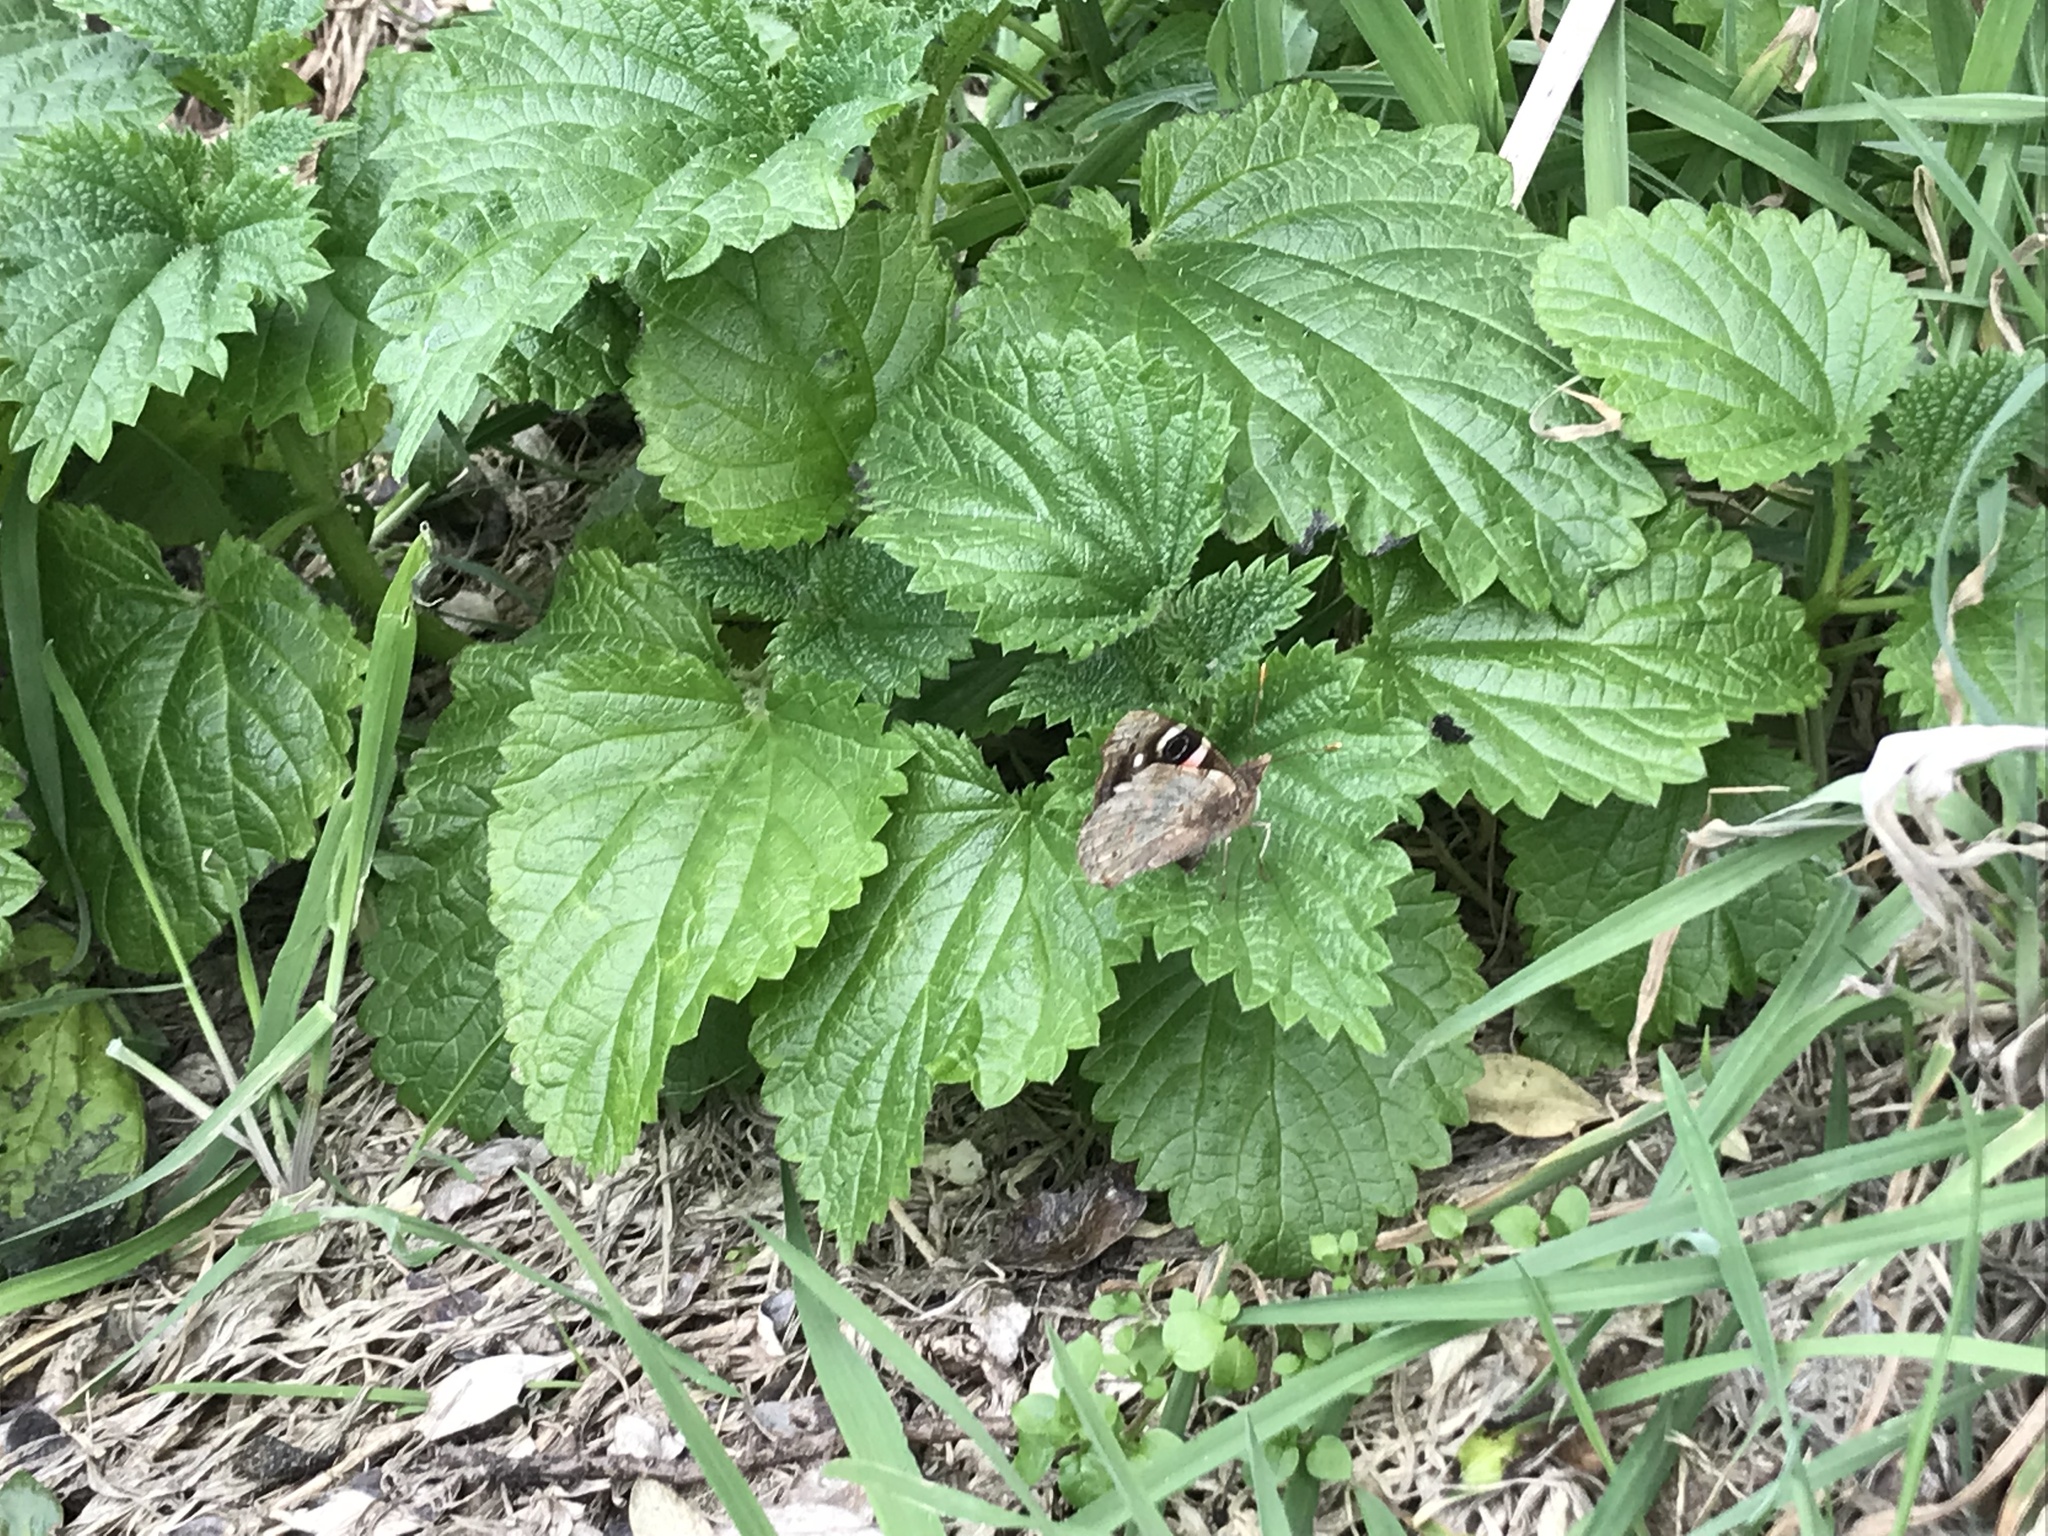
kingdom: Animalia
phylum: Arthropoda
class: Insecta
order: Lepidoptera
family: Nymphalidae
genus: Vanessa
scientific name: Vanessa gonerilla
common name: New zealand red admiral
